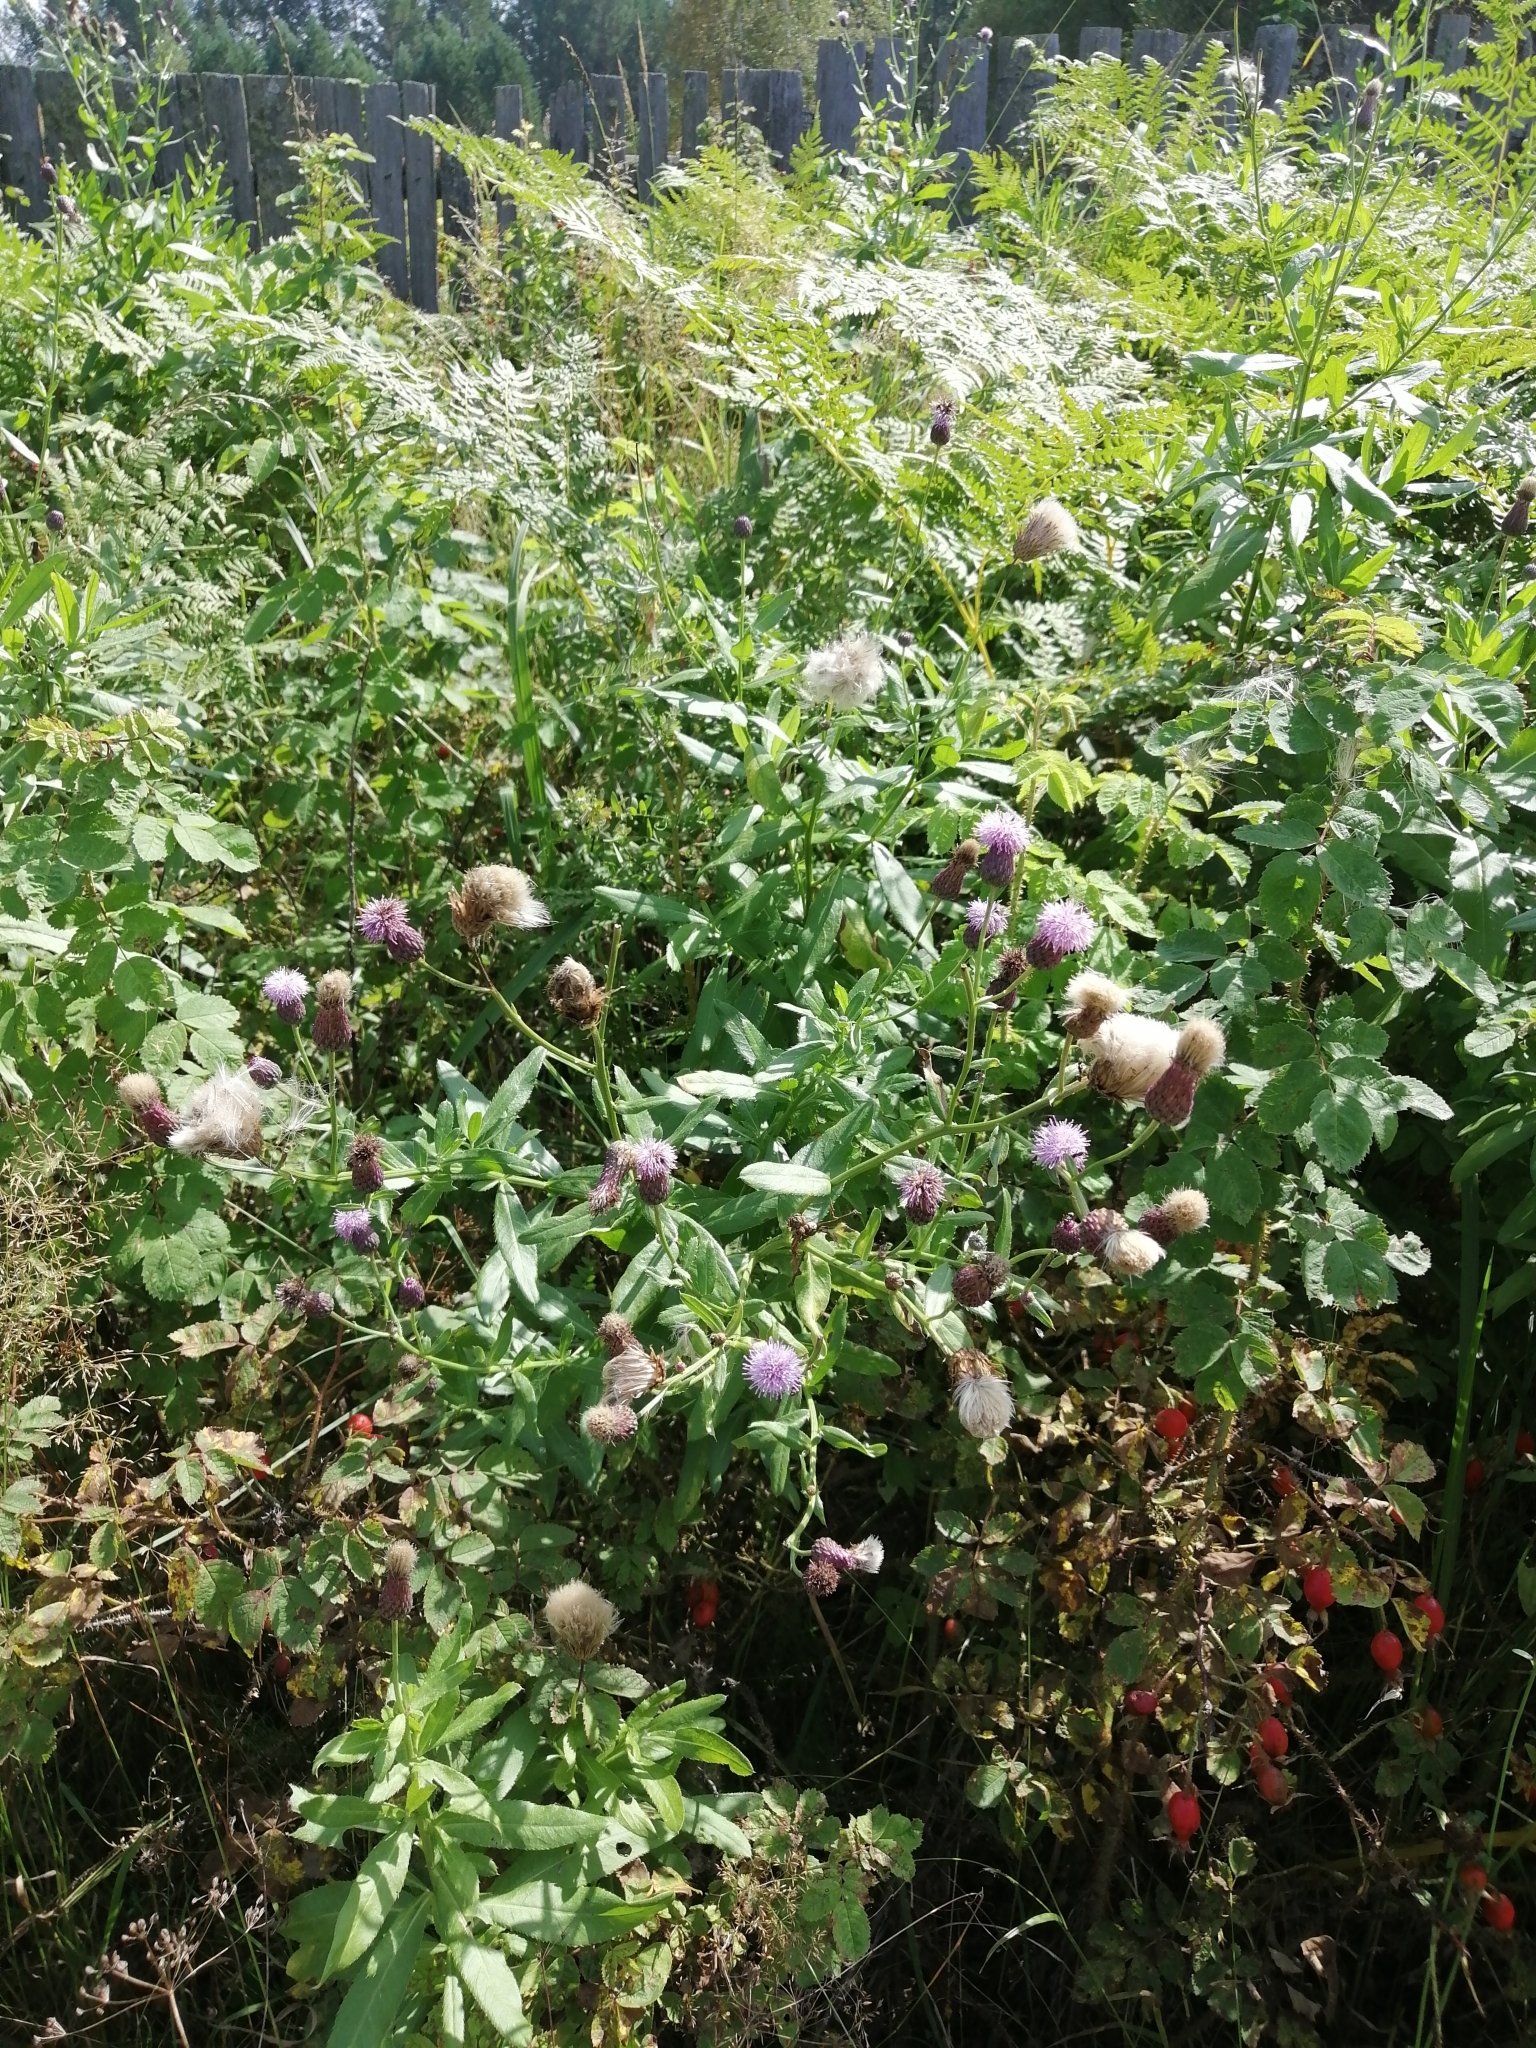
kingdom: Plantae
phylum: Tracheophyta
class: Magnoliopsida
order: Asterales
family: Asteraceae
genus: Cirsium
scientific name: Cirsium arvense
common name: Creeping thistle
